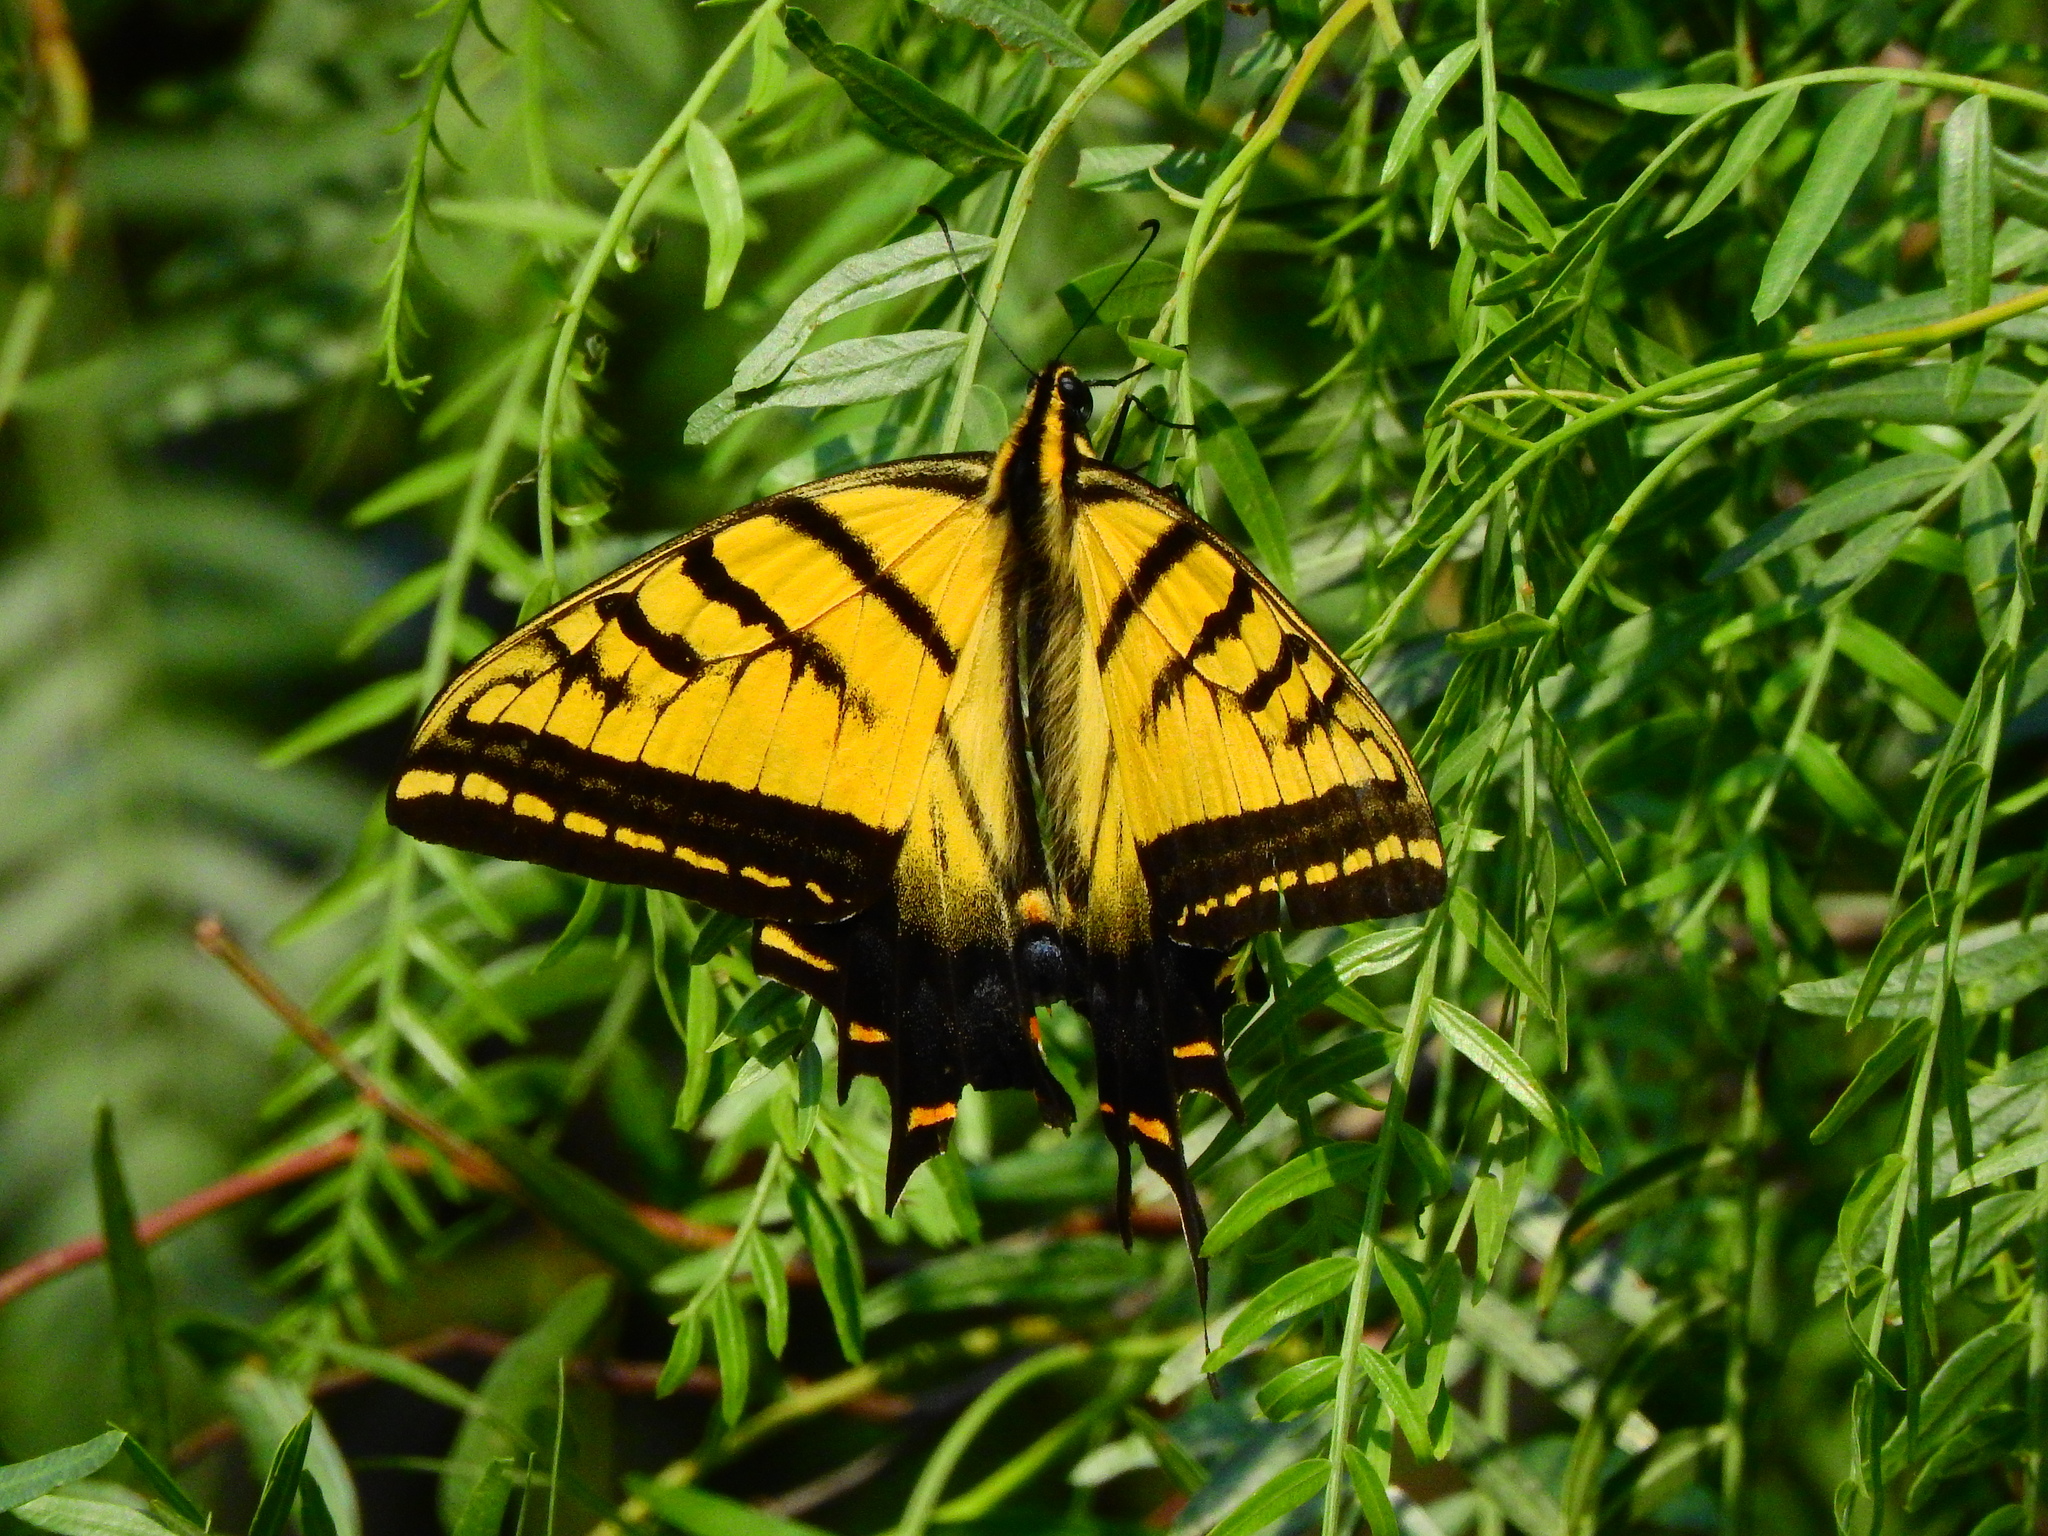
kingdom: Animalia
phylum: Arthropoda
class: Insecta
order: Lepidoptera
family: Papilionidae
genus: Papilio
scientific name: Papilio multicaudata
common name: Two-tailed tiger swallowtail
